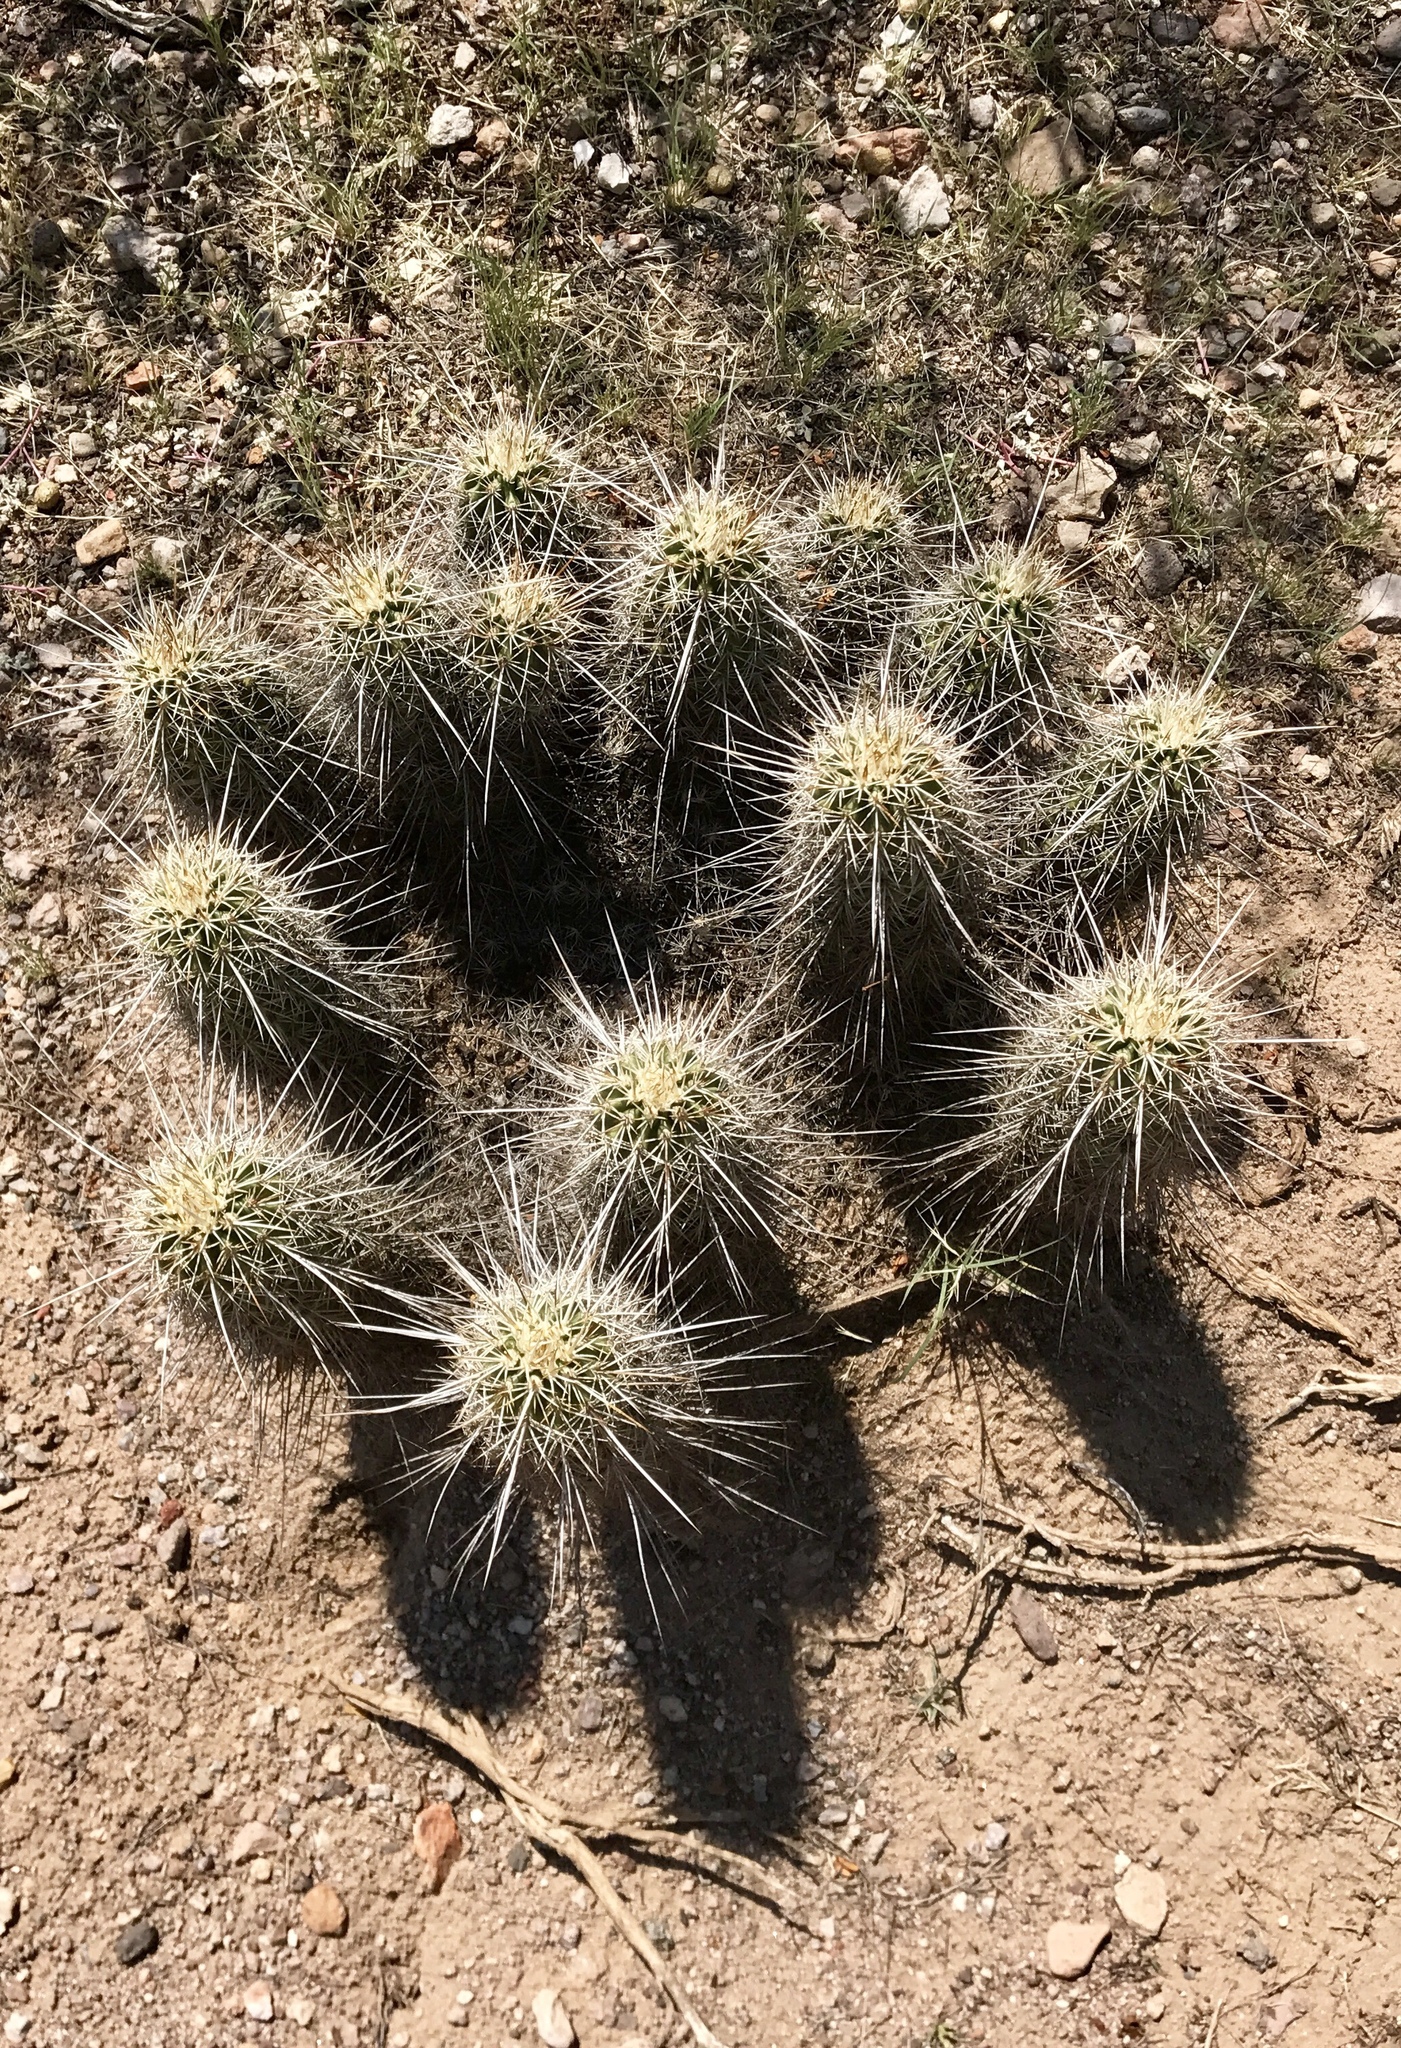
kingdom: Plantae
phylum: Tracheophyta
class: Magnoliopsida
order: Caryophyllales
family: Cactaceae
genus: Echinocereus
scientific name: Echinocereus fasciculatus
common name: Bundle hedgehog
